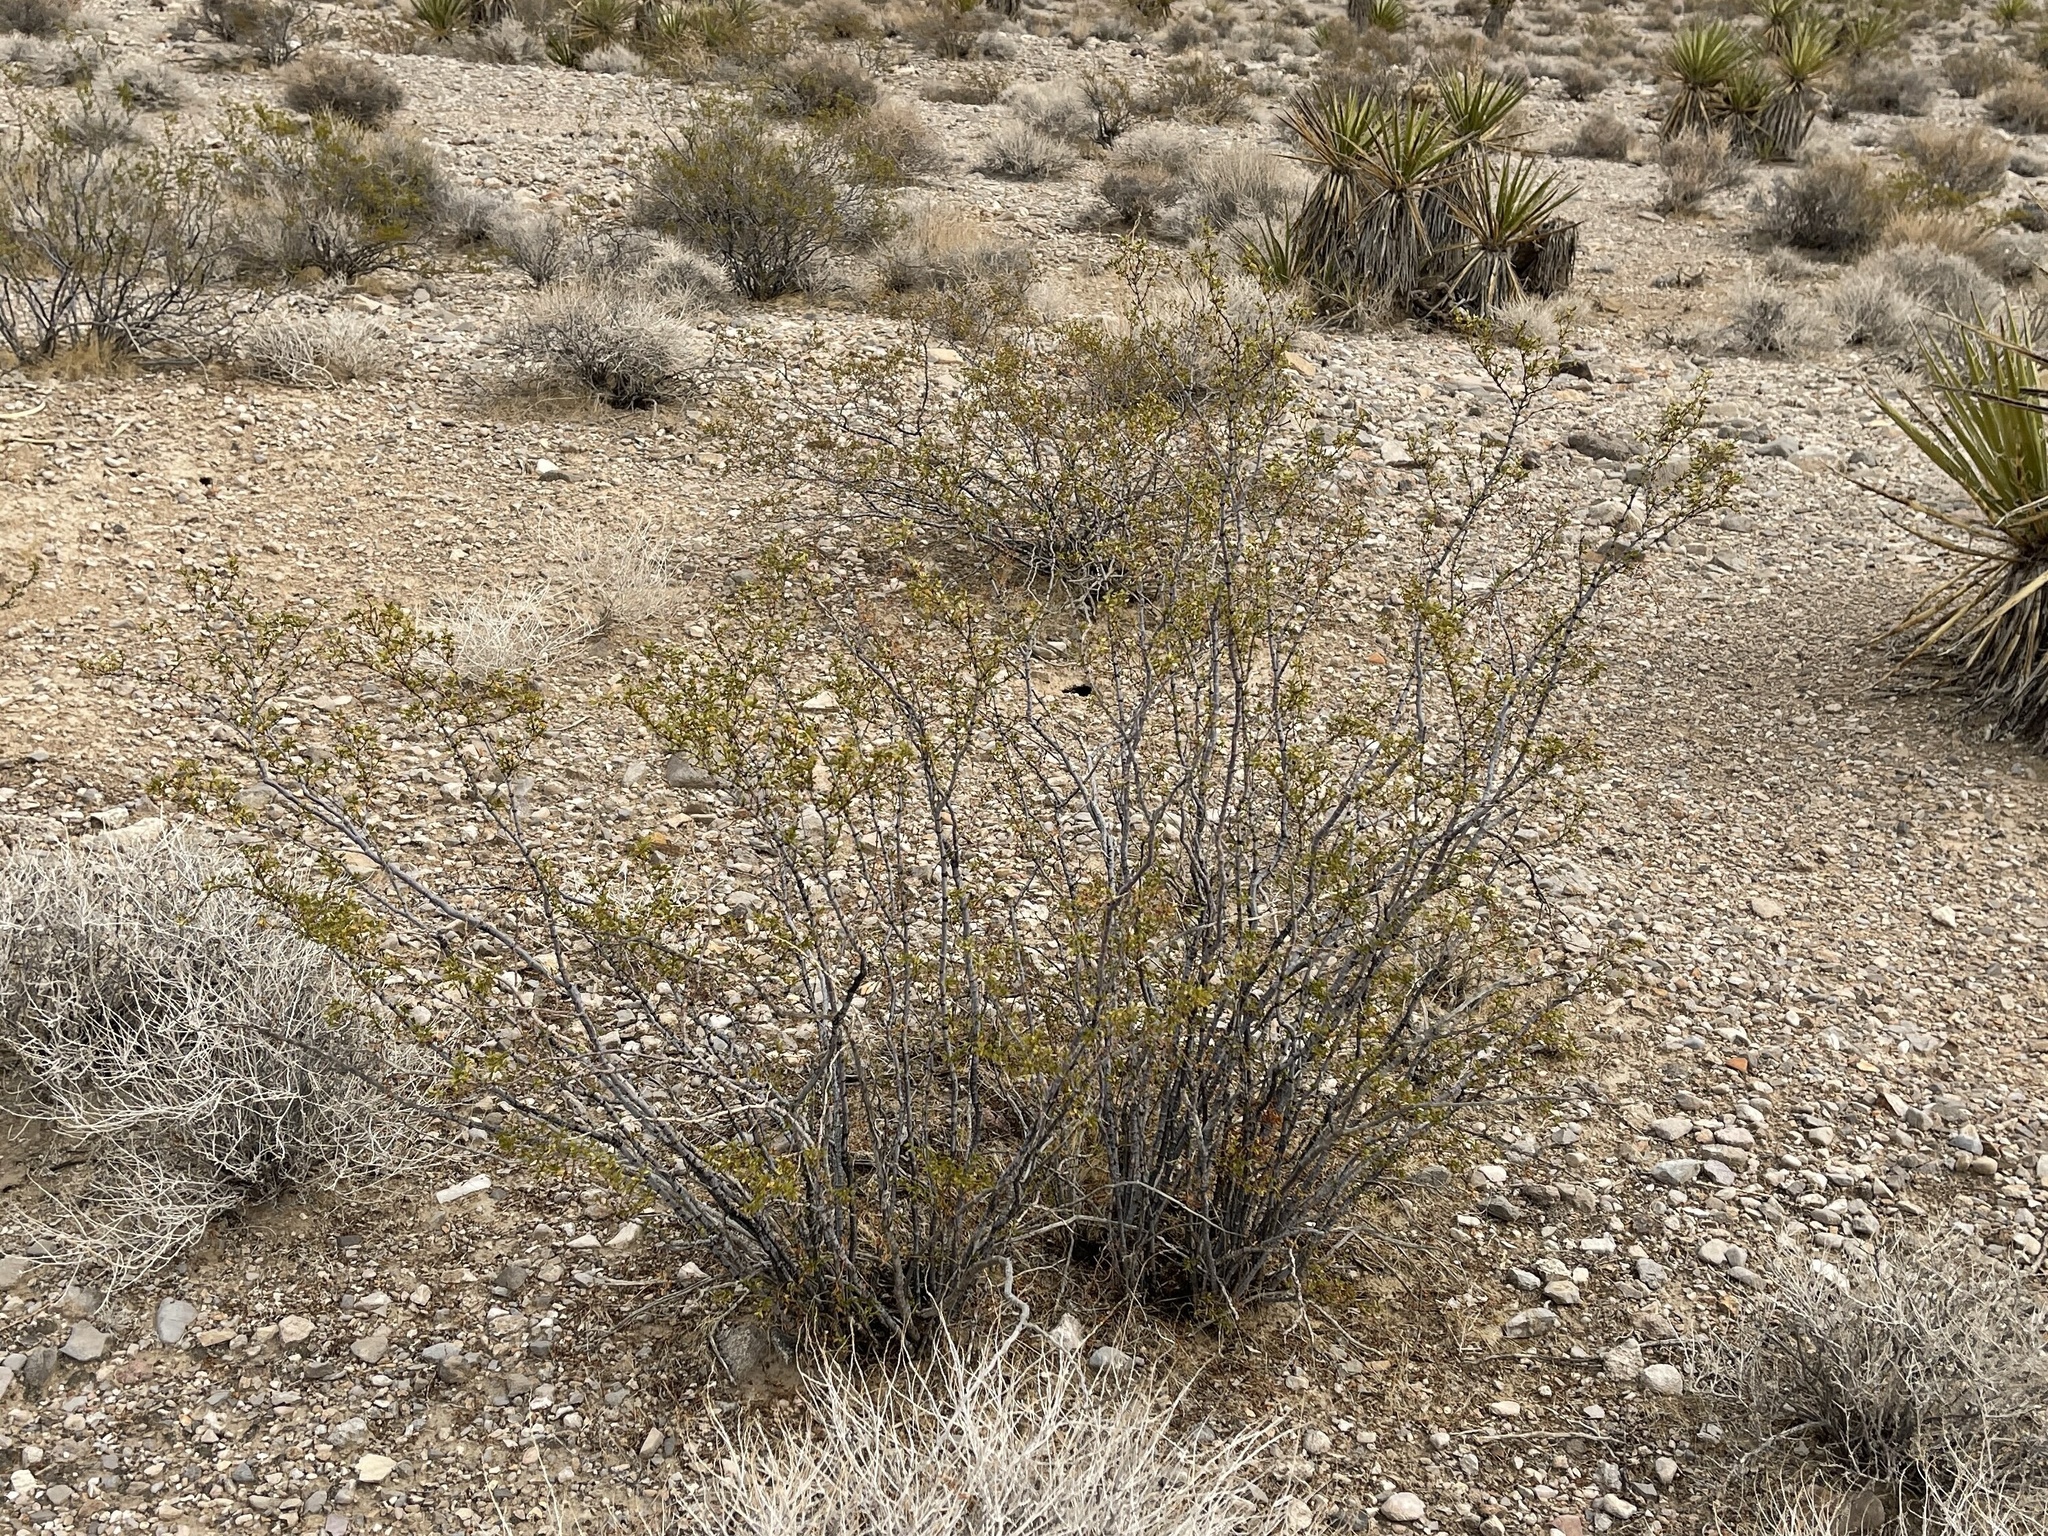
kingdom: Plantae
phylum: Tracheophyta
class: Magnoliopsida
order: Zygophyllales
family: Zygophyllaceae
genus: Larrea
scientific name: Larrea tridentata
